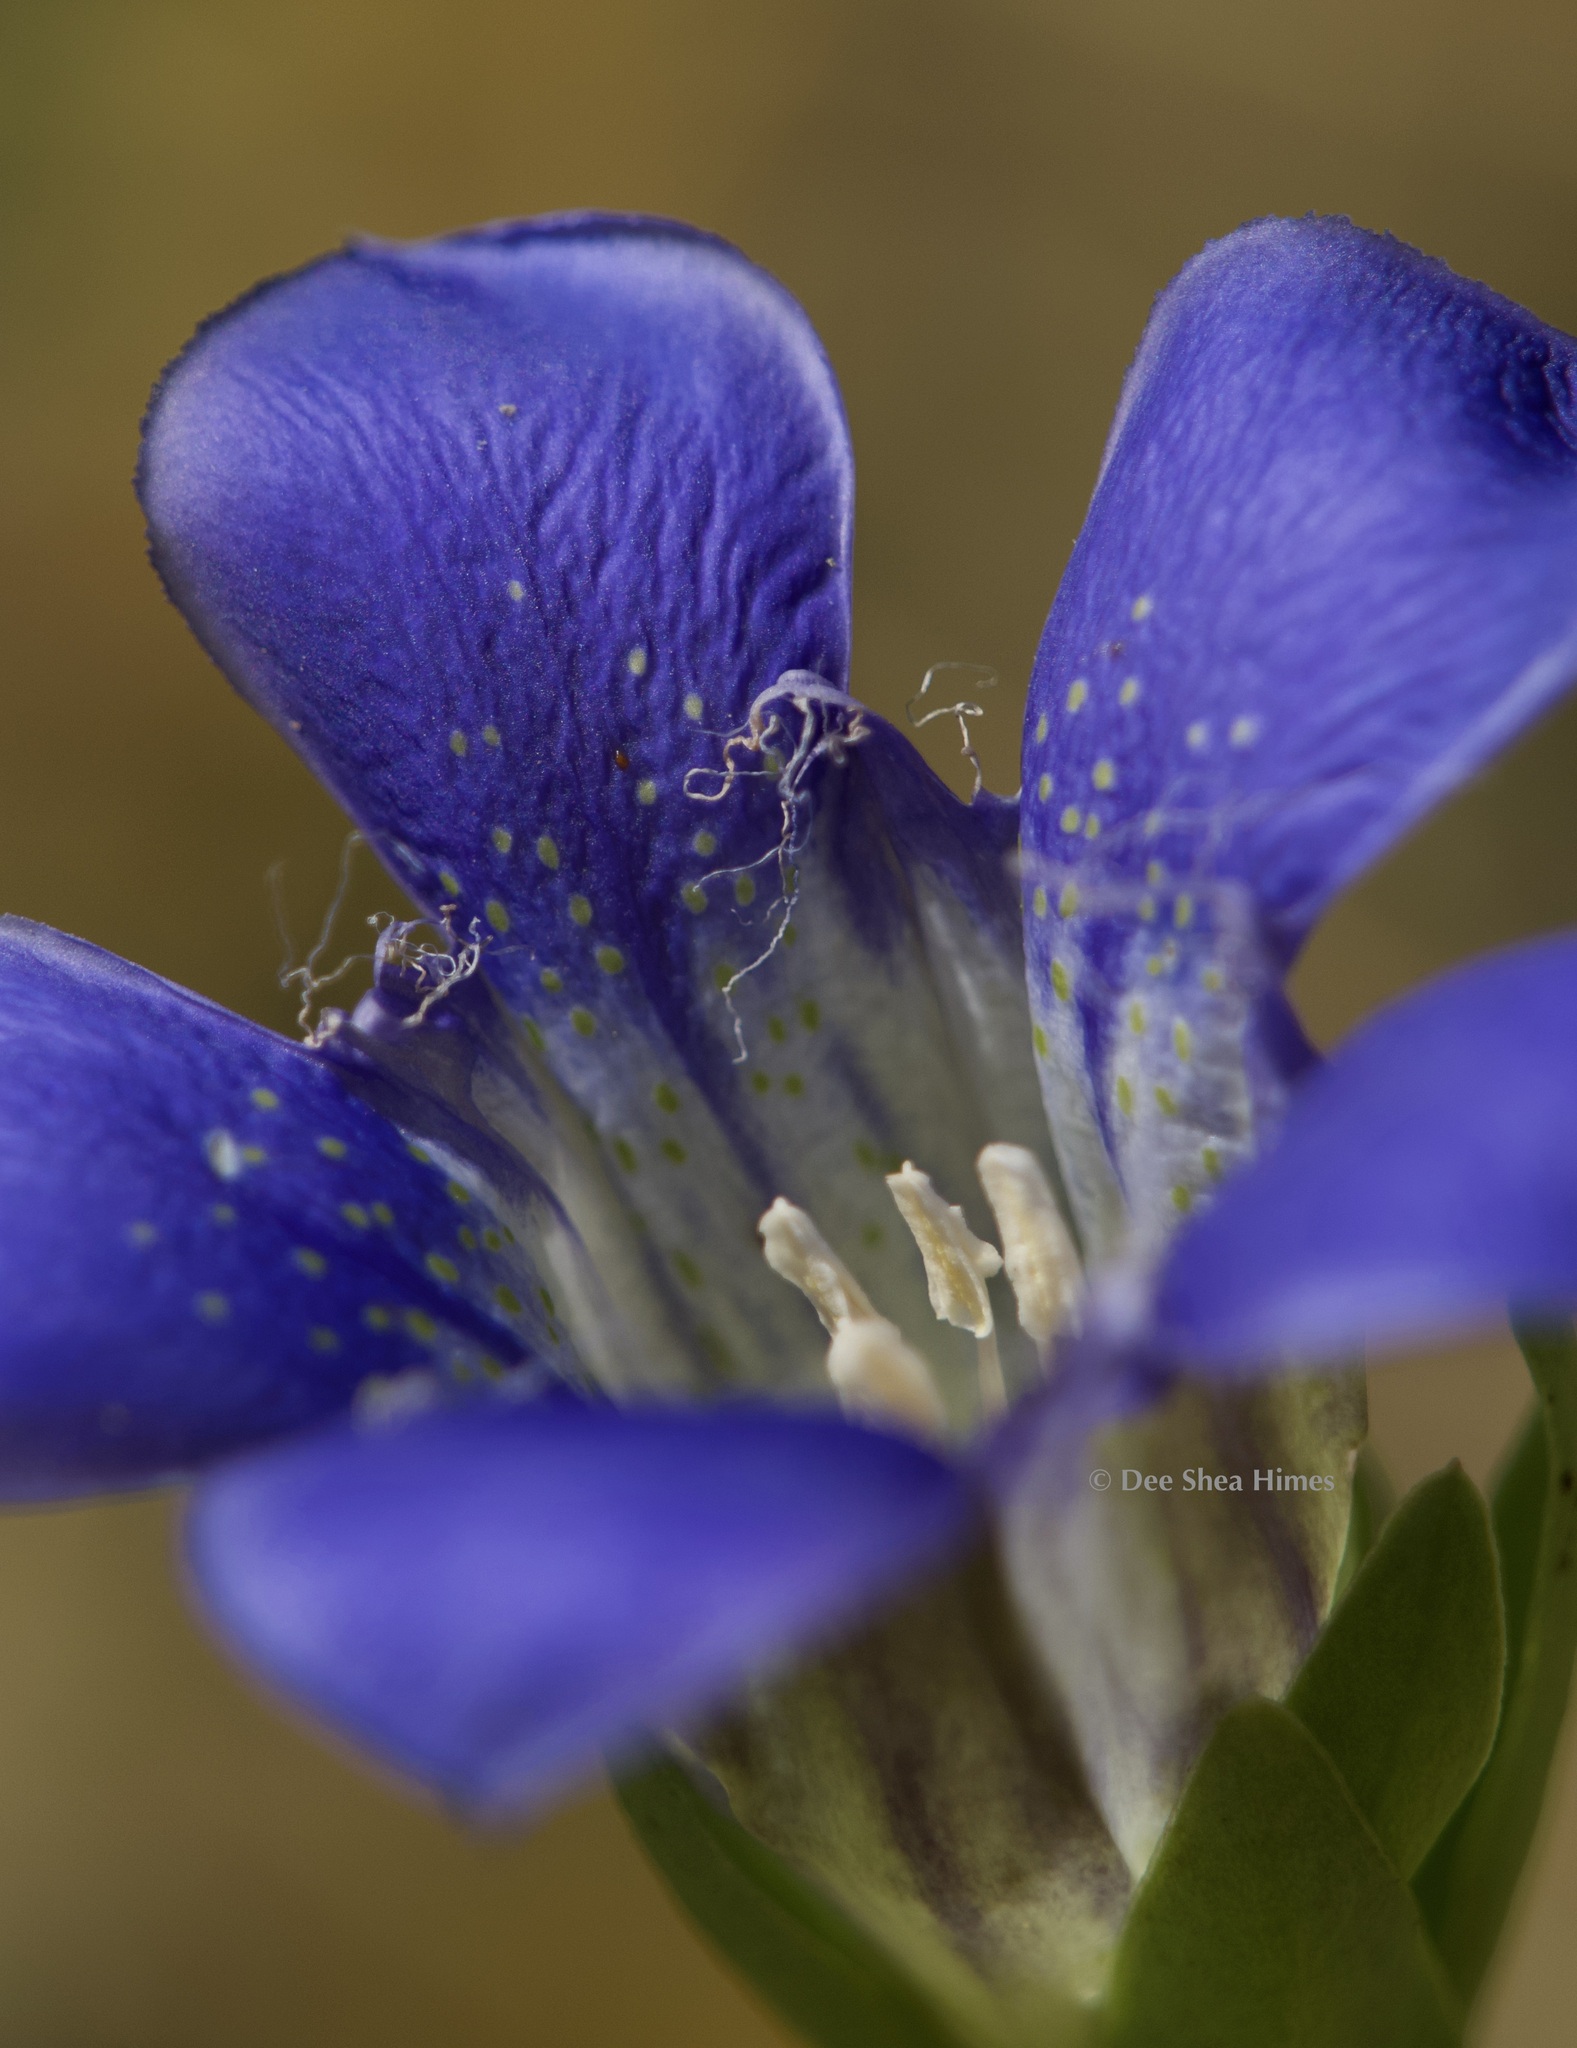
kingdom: Plantae
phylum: Tracheophyta
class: Magnoliopsida
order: Gentianales
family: Gentianaceae
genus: Gentiana
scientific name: Gentiana setigera
